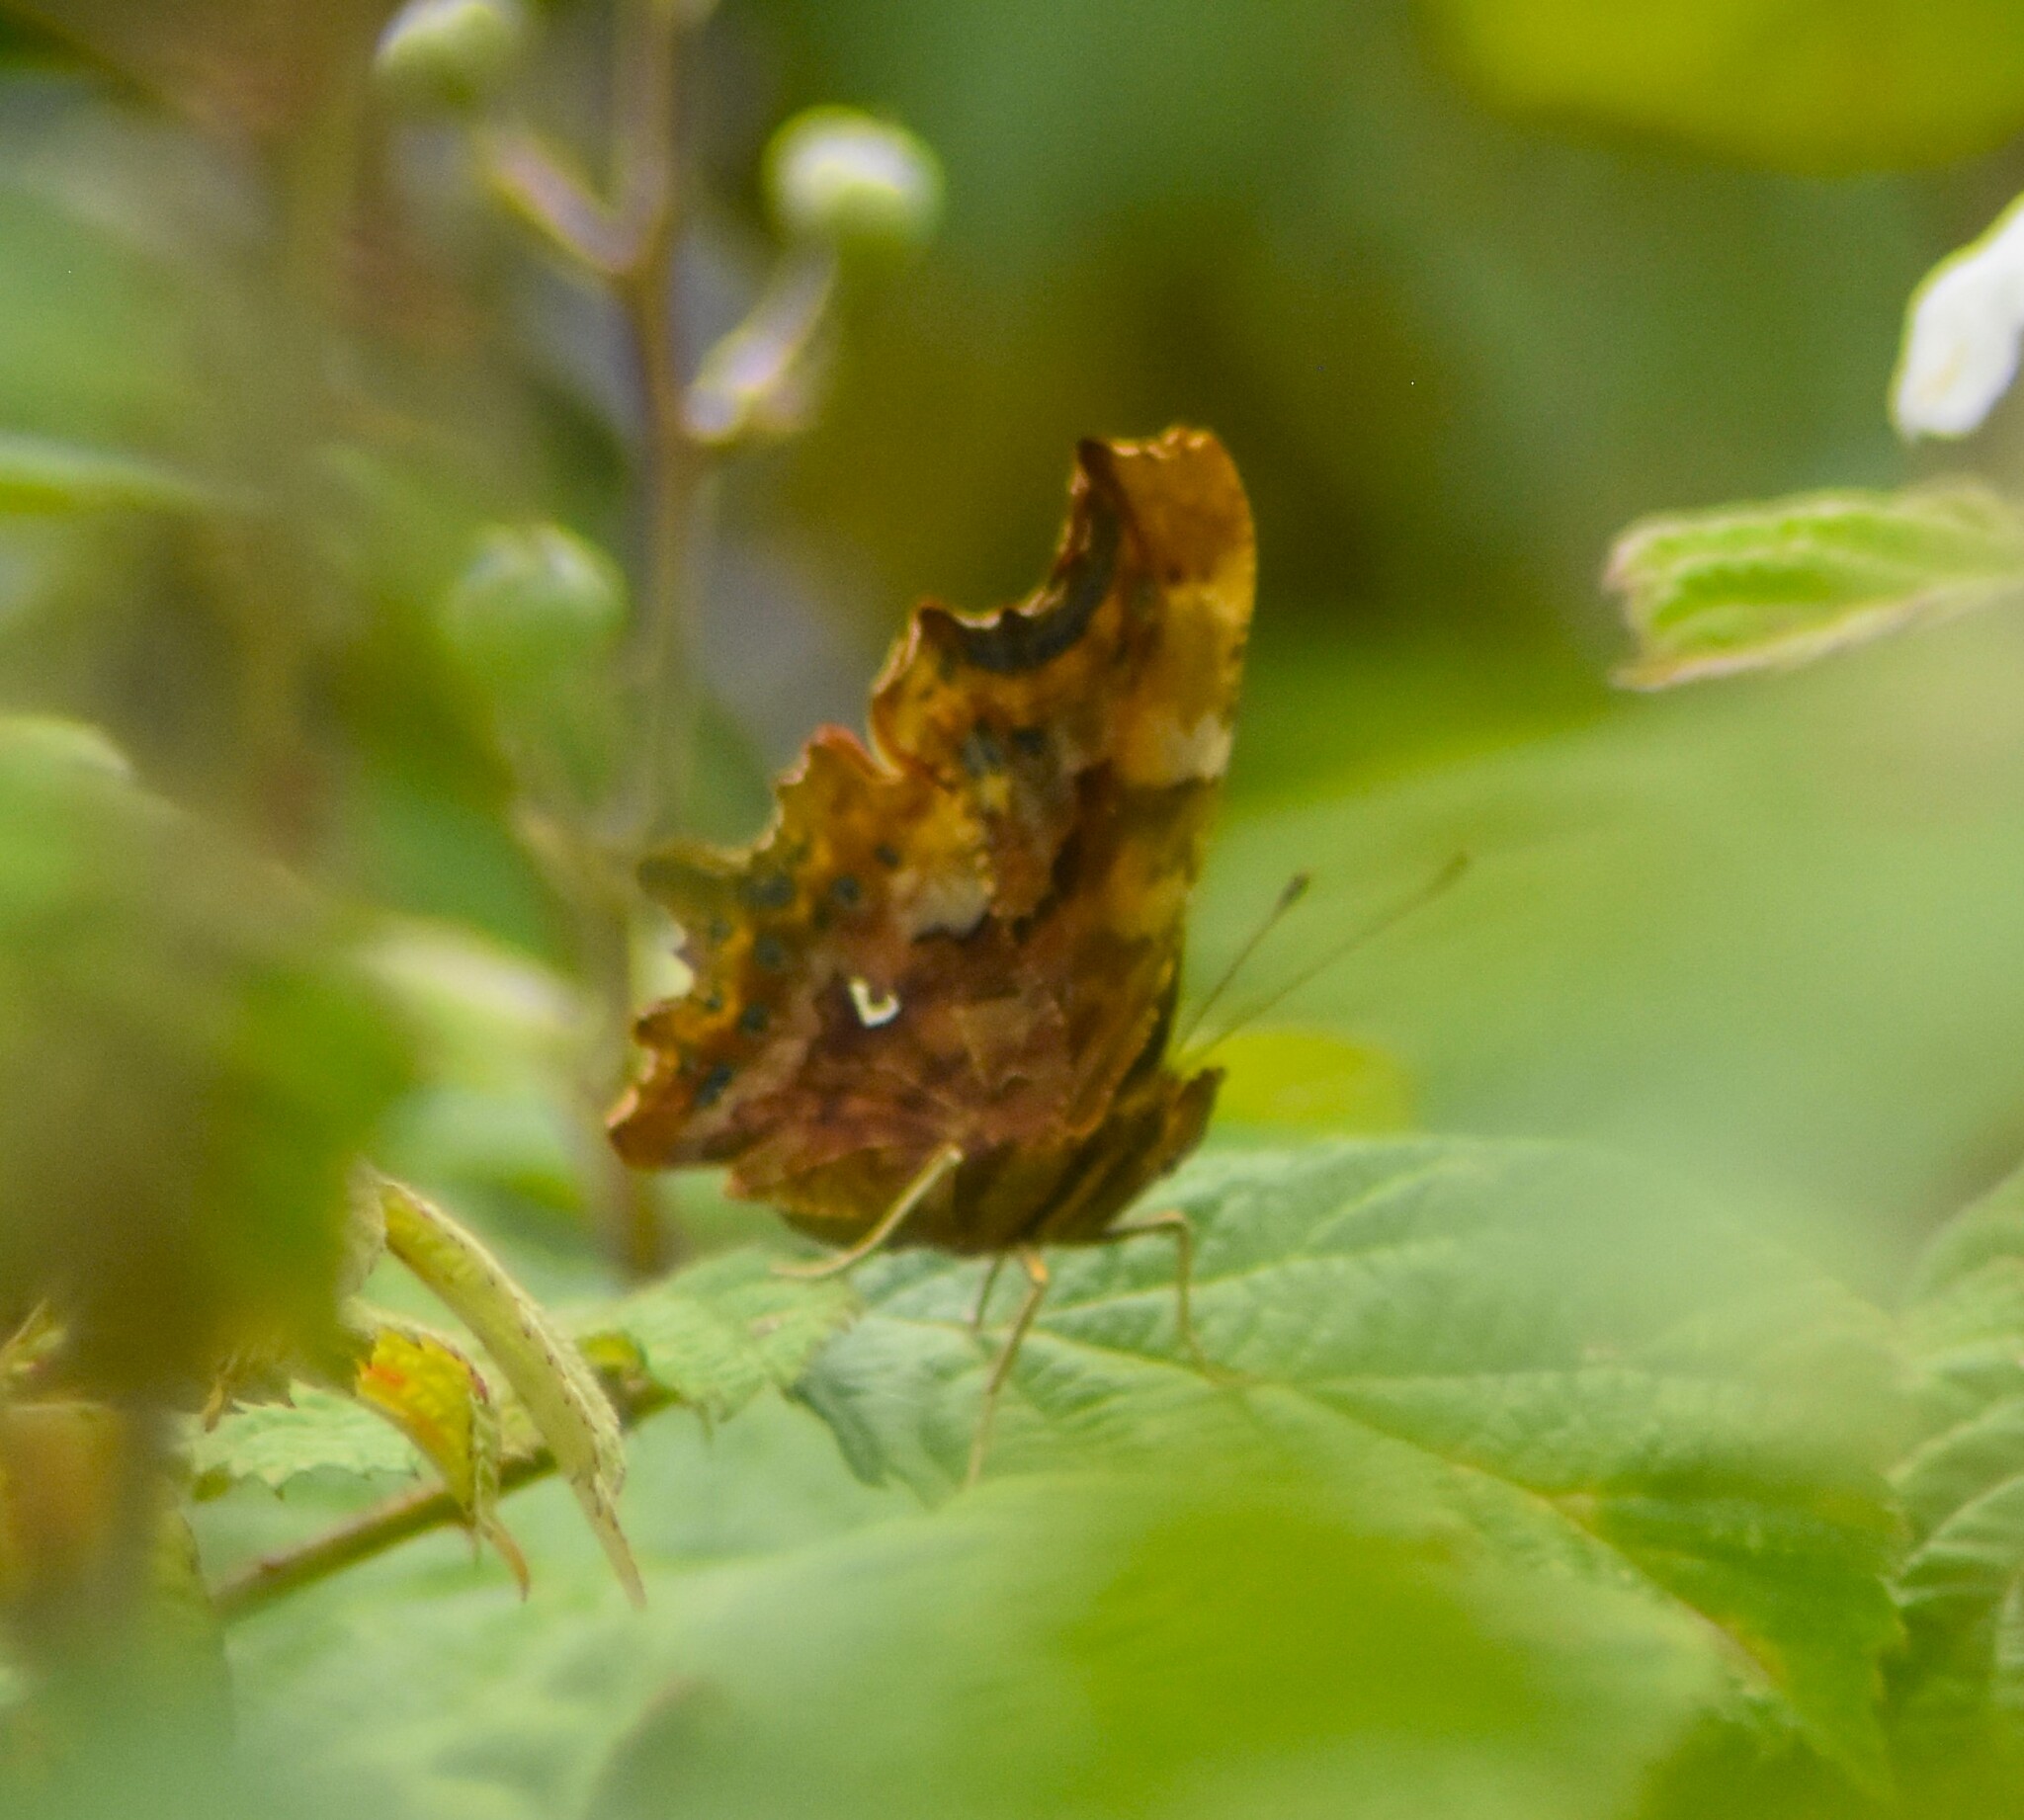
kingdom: Animalia
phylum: Arthropoda
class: Insecta
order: Lepidoptera
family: Nymphalidae
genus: Polygonia
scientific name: Polygonia c-album
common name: Comma
